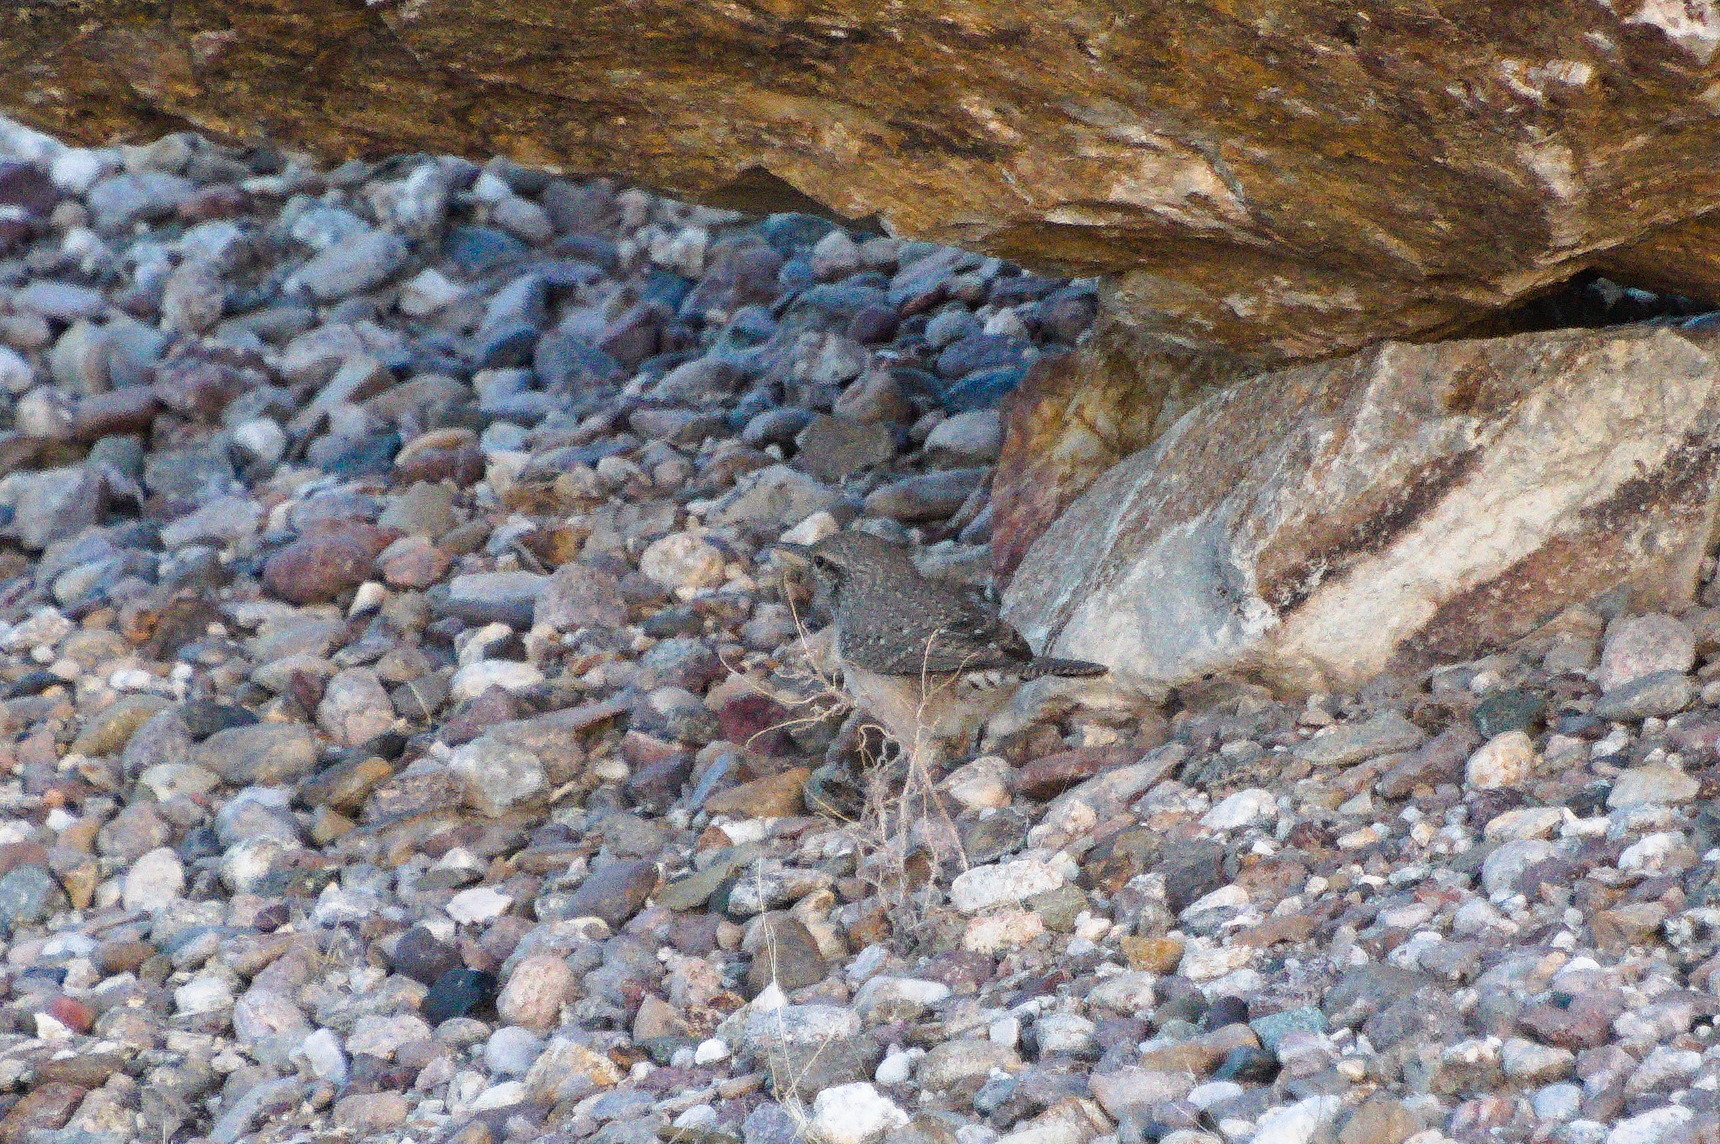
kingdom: Animalia
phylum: Chordata
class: Aves
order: Passeriformes
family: Troglodytidae
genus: Salpinctes
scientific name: Salpinctes obsoletus
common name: Rock wren
